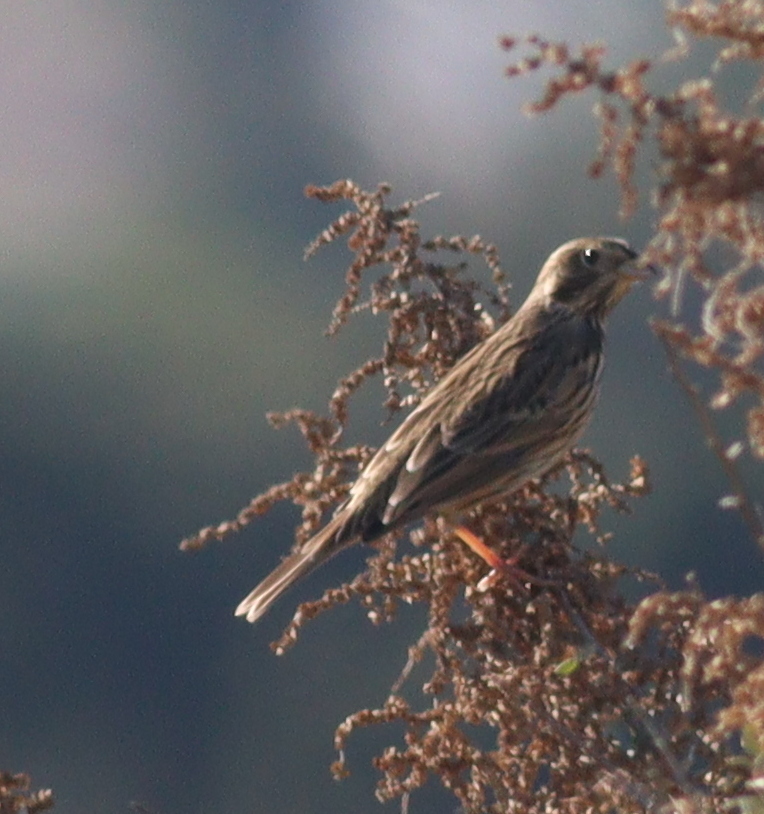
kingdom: Animalia
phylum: Chordata
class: Aves
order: Passeriformes
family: Emberizidae
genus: Emberiza
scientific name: Emberiza calandra
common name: Corn bunting
